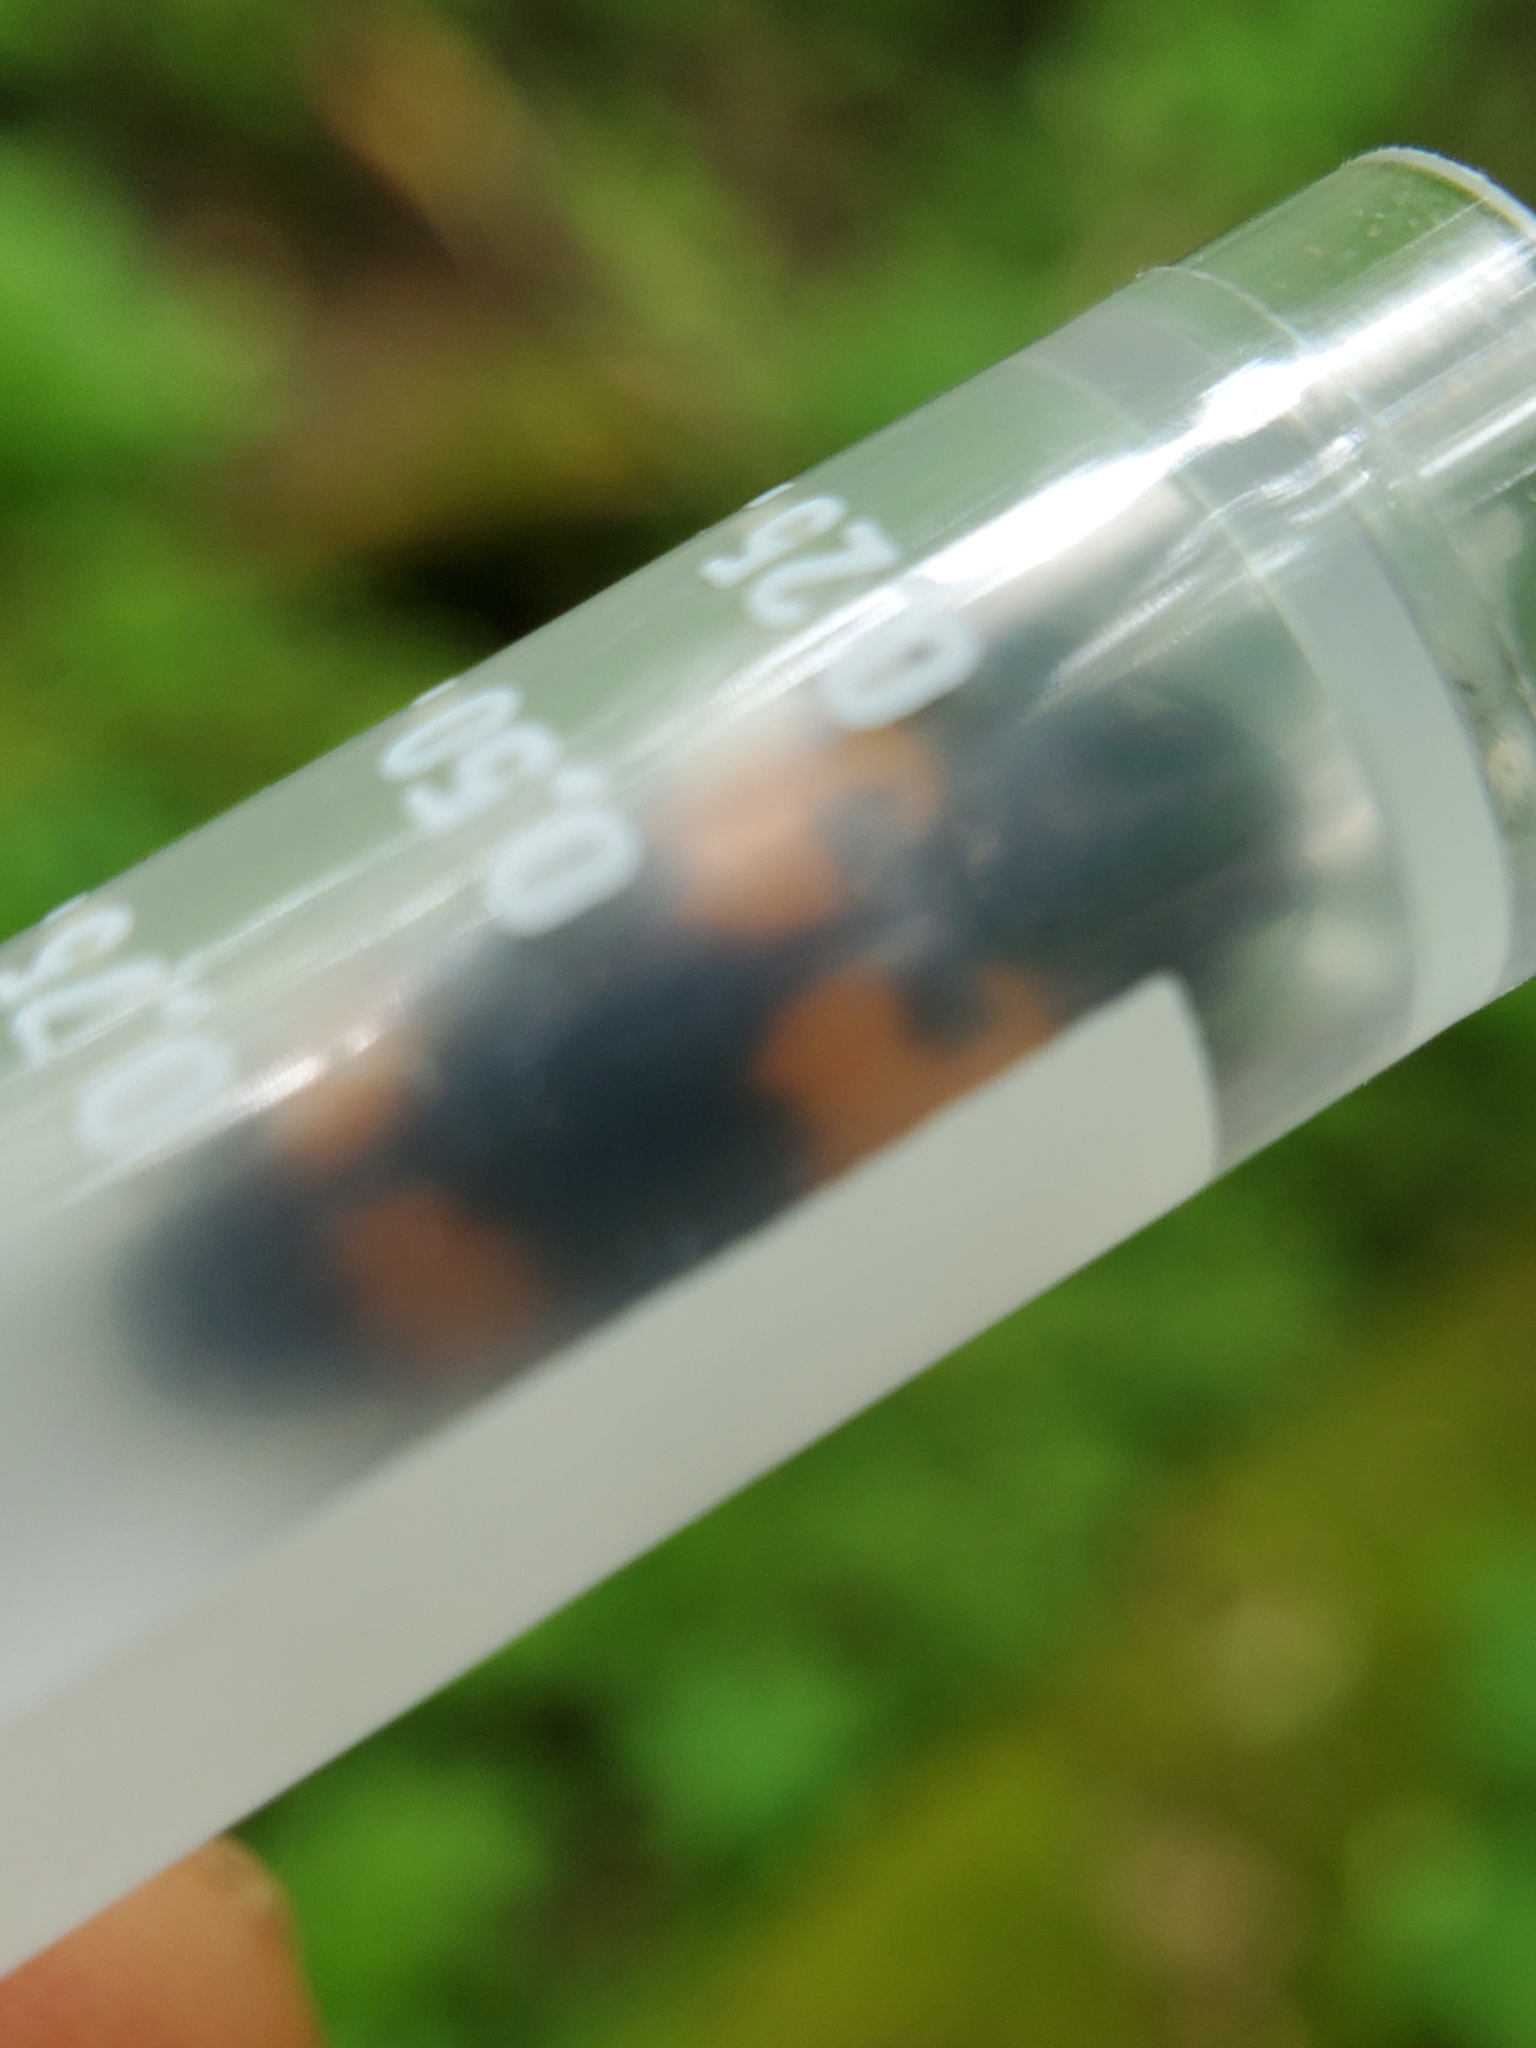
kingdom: Animalia
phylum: Arthropoda
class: Insecta
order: Coleoptera
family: Erotylidae
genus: Megalodacne
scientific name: Megalodacne heros
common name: Pleasing fungus beetle
